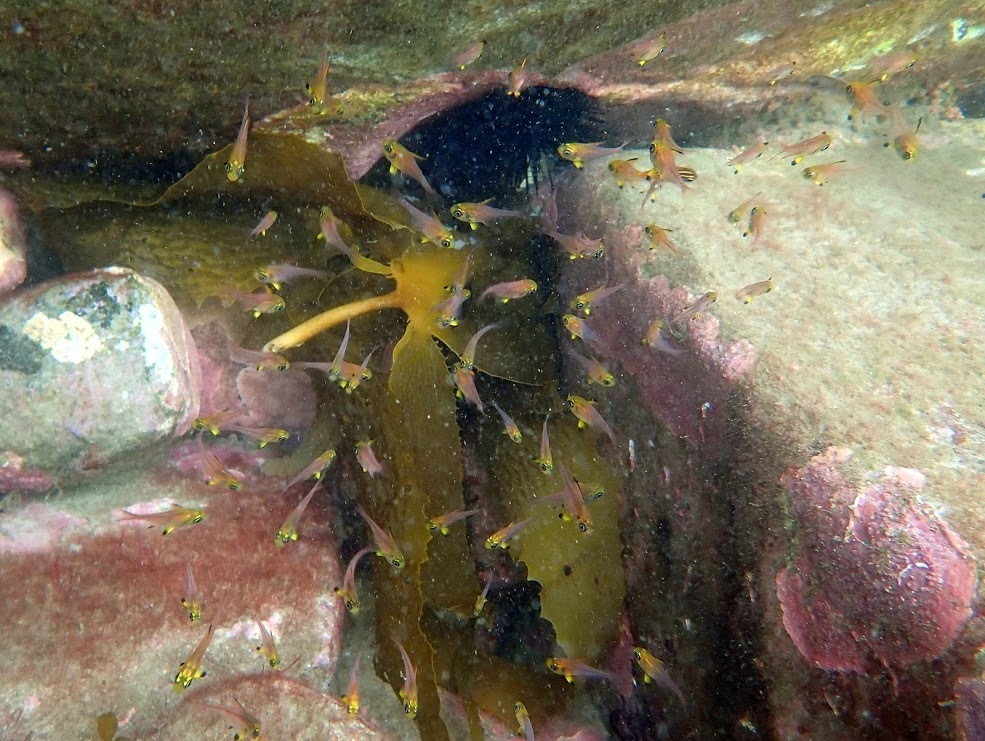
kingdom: Animalia
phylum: Chordata
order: Perciformes
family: Pempheridae
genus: Pempheris
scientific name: Pempheris multiradiata
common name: Big-scaled bullseye
